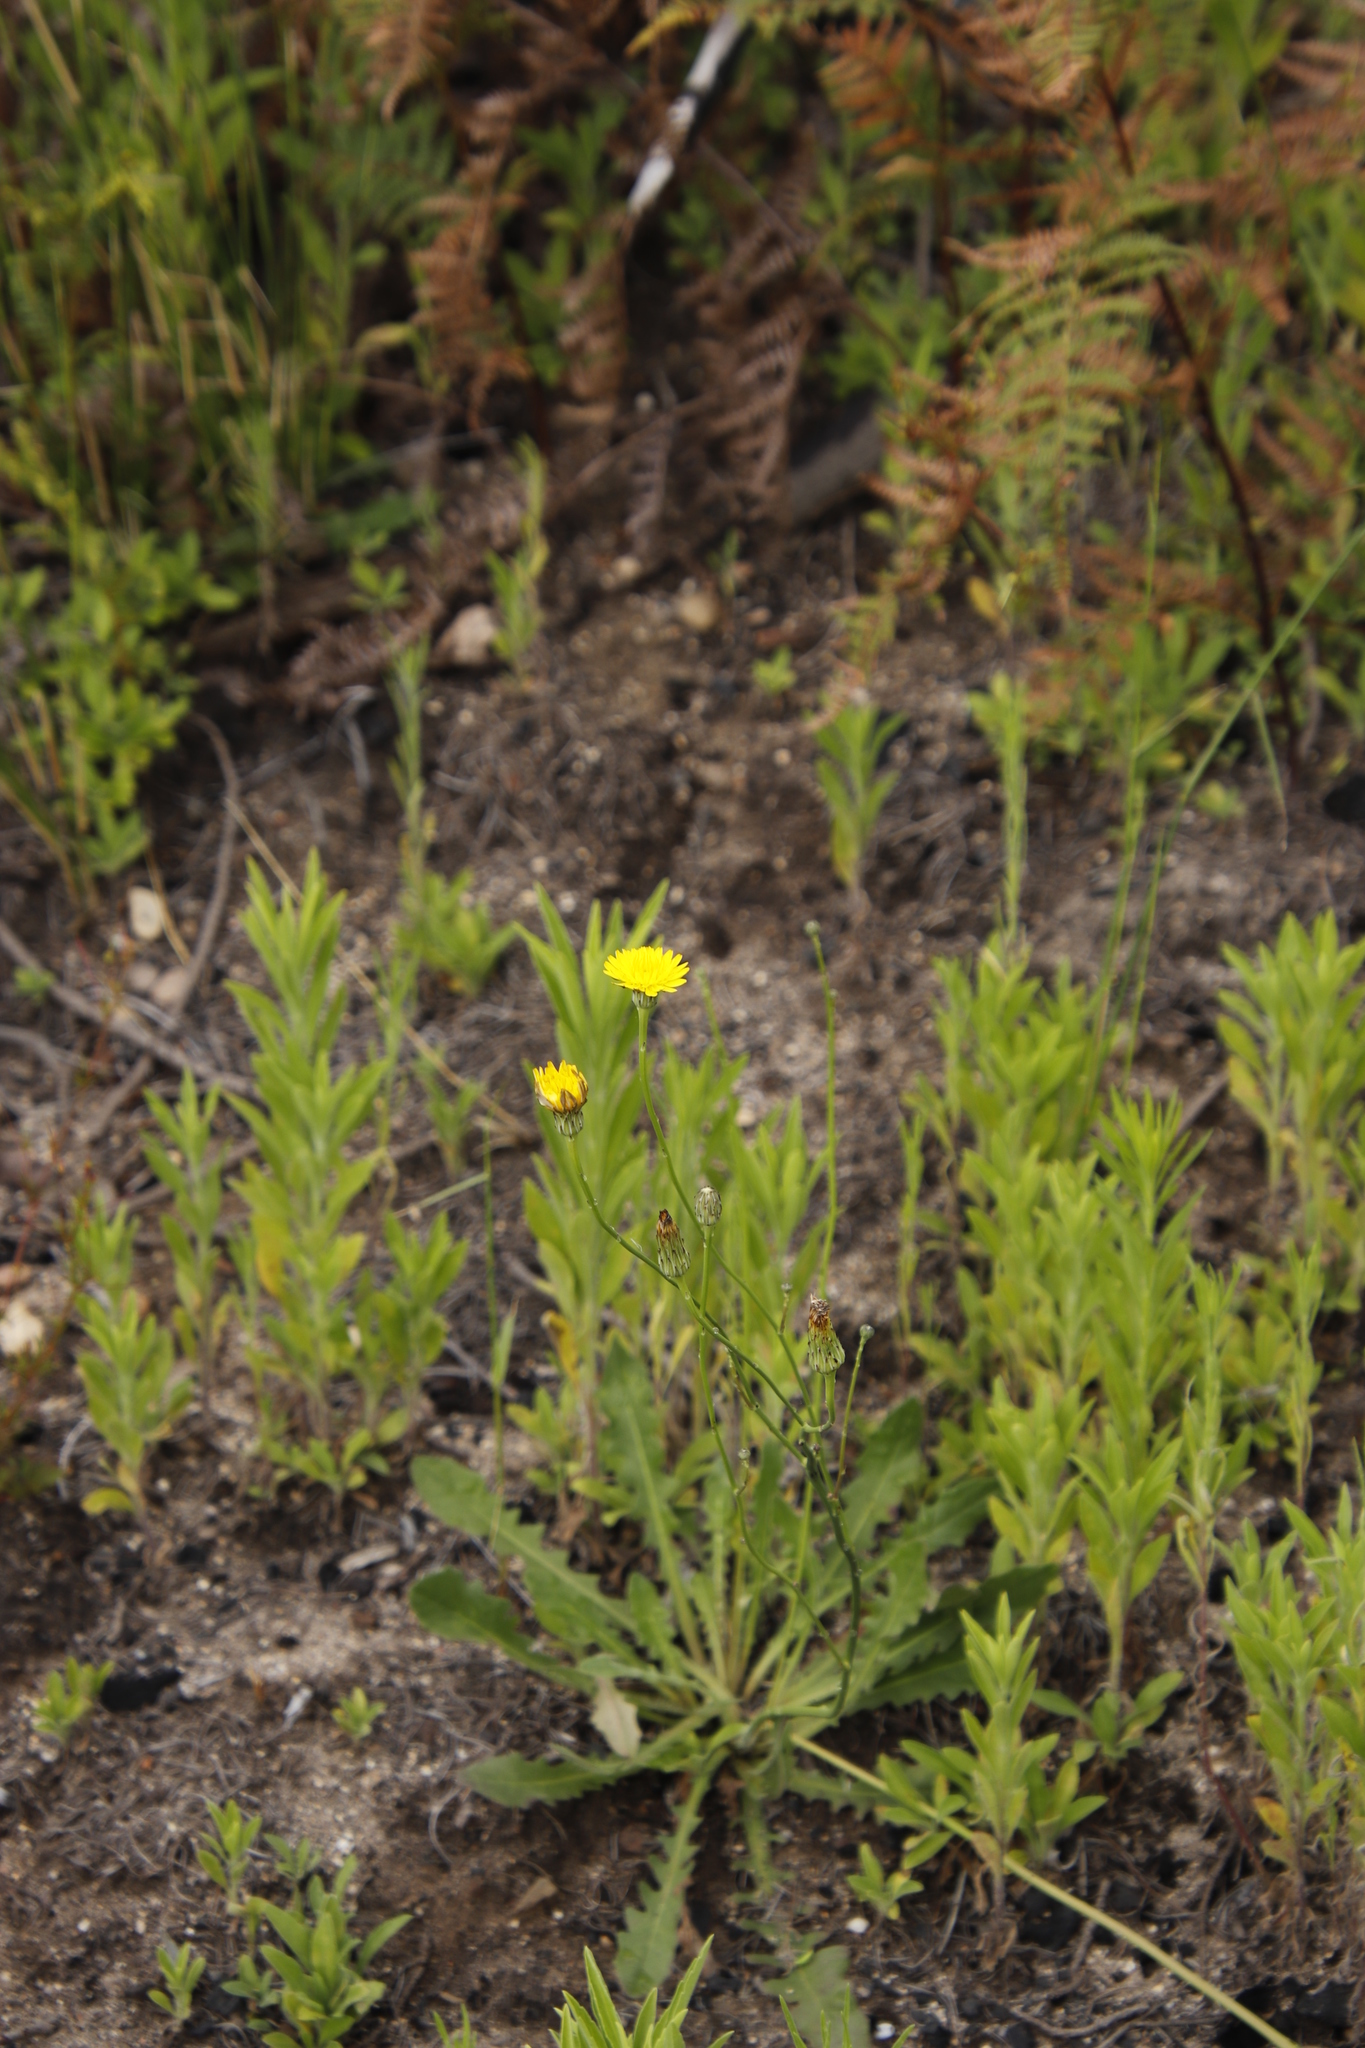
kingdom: Plantae
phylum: Tracheophyta
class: Magnoliopsida
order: Asterales
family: Asteraceae
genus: Hypochaeris
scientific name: Hypochaeris radicata
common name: Flatweed
